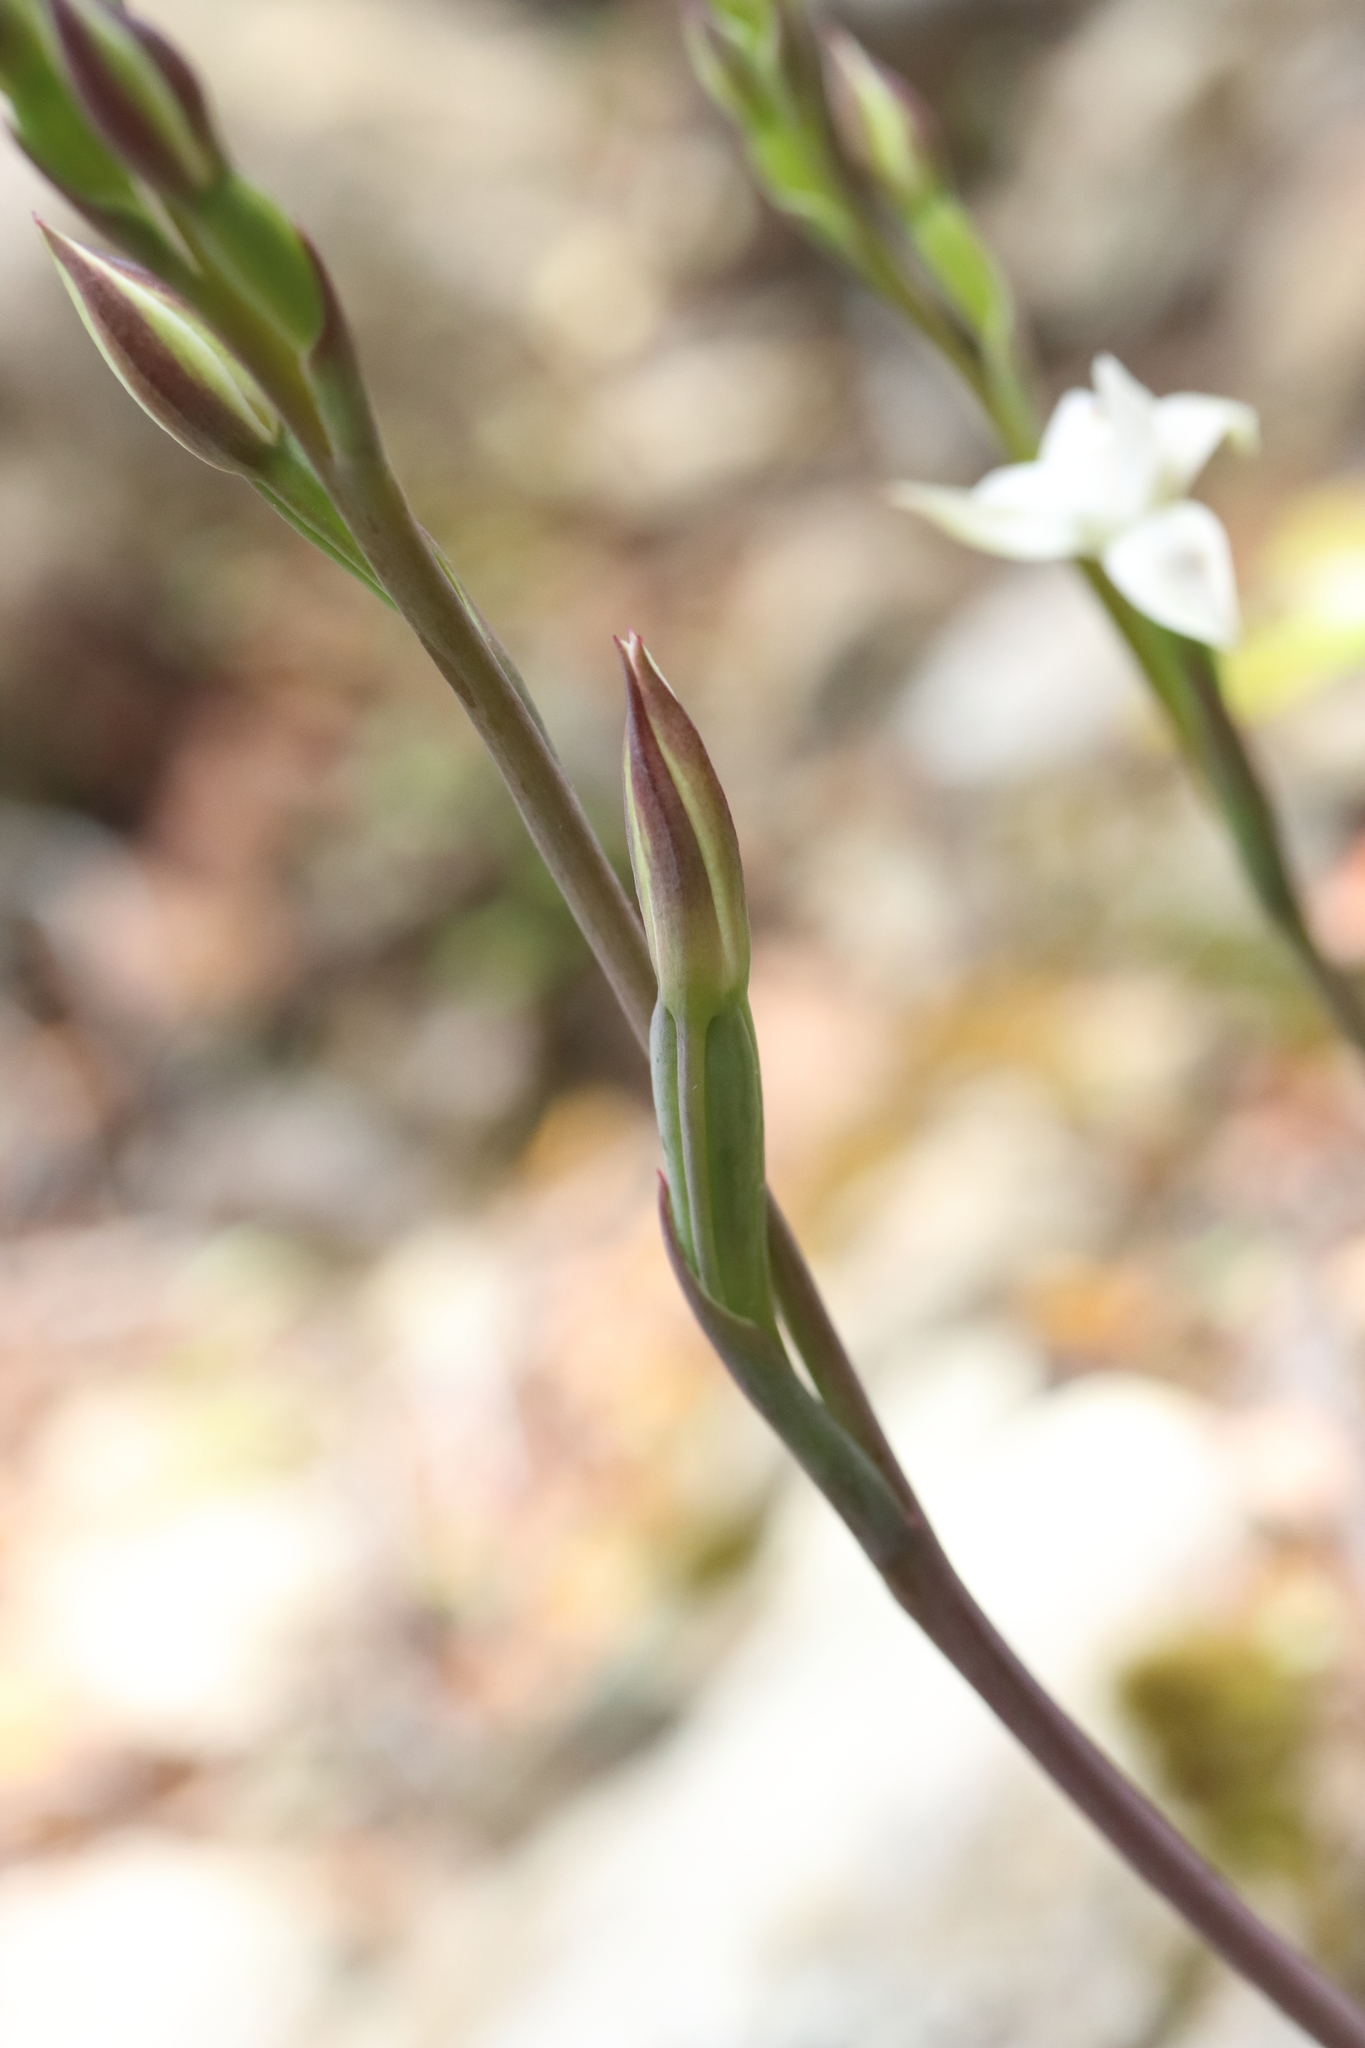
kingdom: Plantae
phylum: Tracheophyta
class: Liliopsida
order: Asparagales
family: Orchidaceae
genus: Thelymitra
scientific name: Thelymitra longifolia
